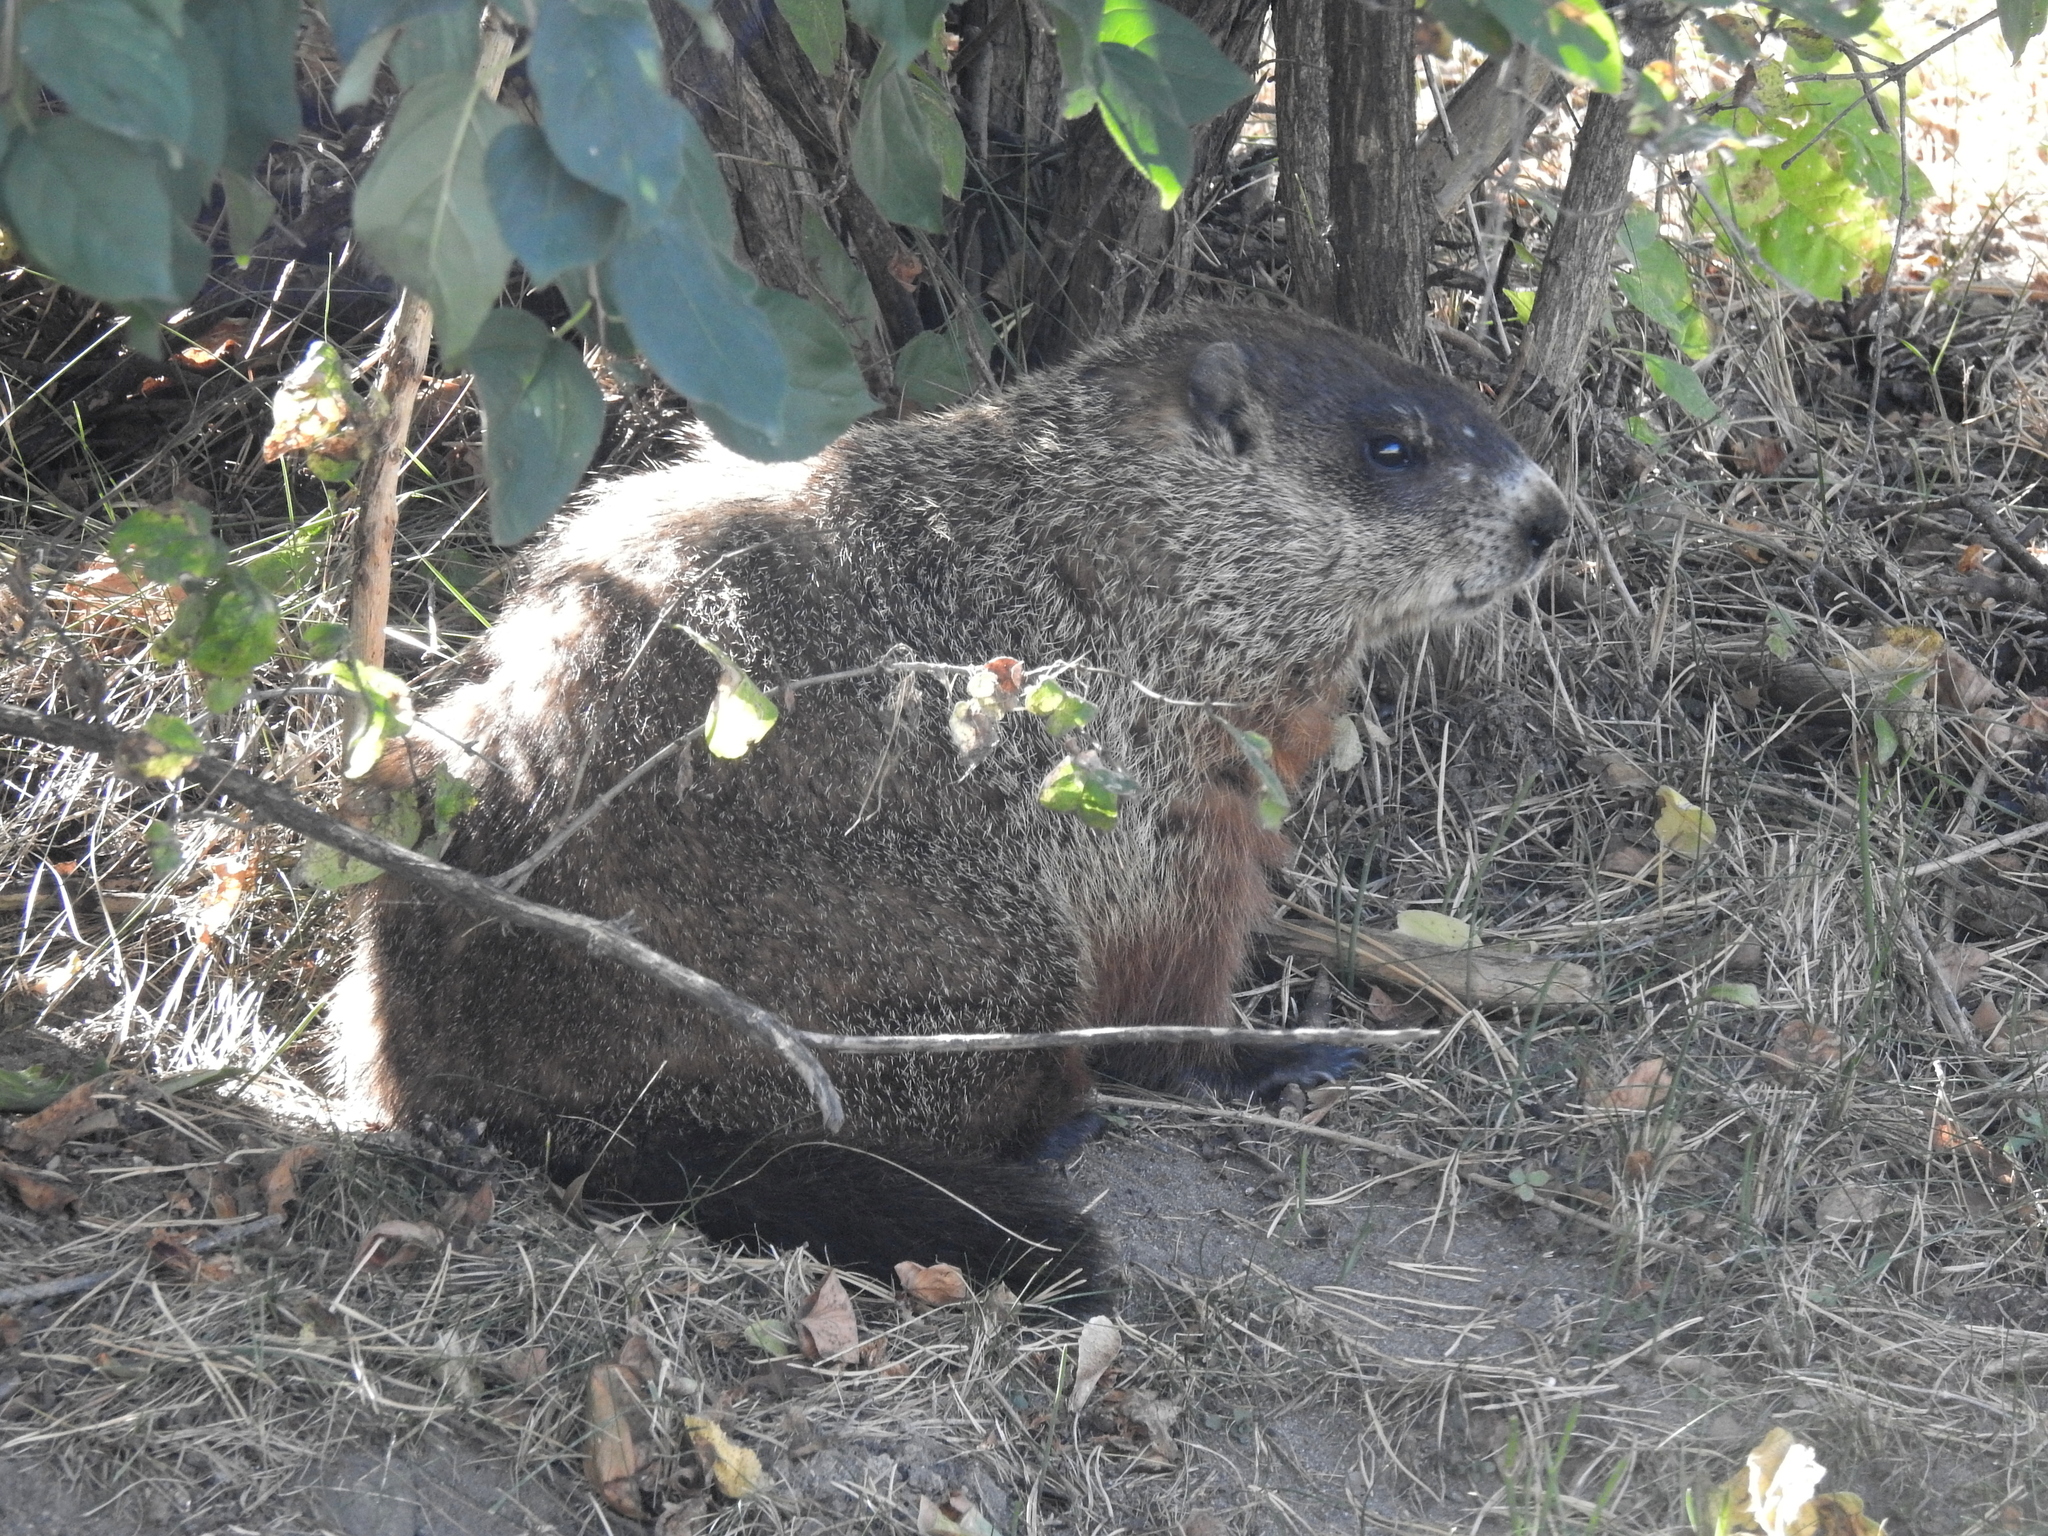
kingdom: Animalia
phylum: Chordata
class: Mammalia
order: Rodentia
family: Sciuridae
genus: Marmota
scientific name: Marmota monax
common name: Groundhog
